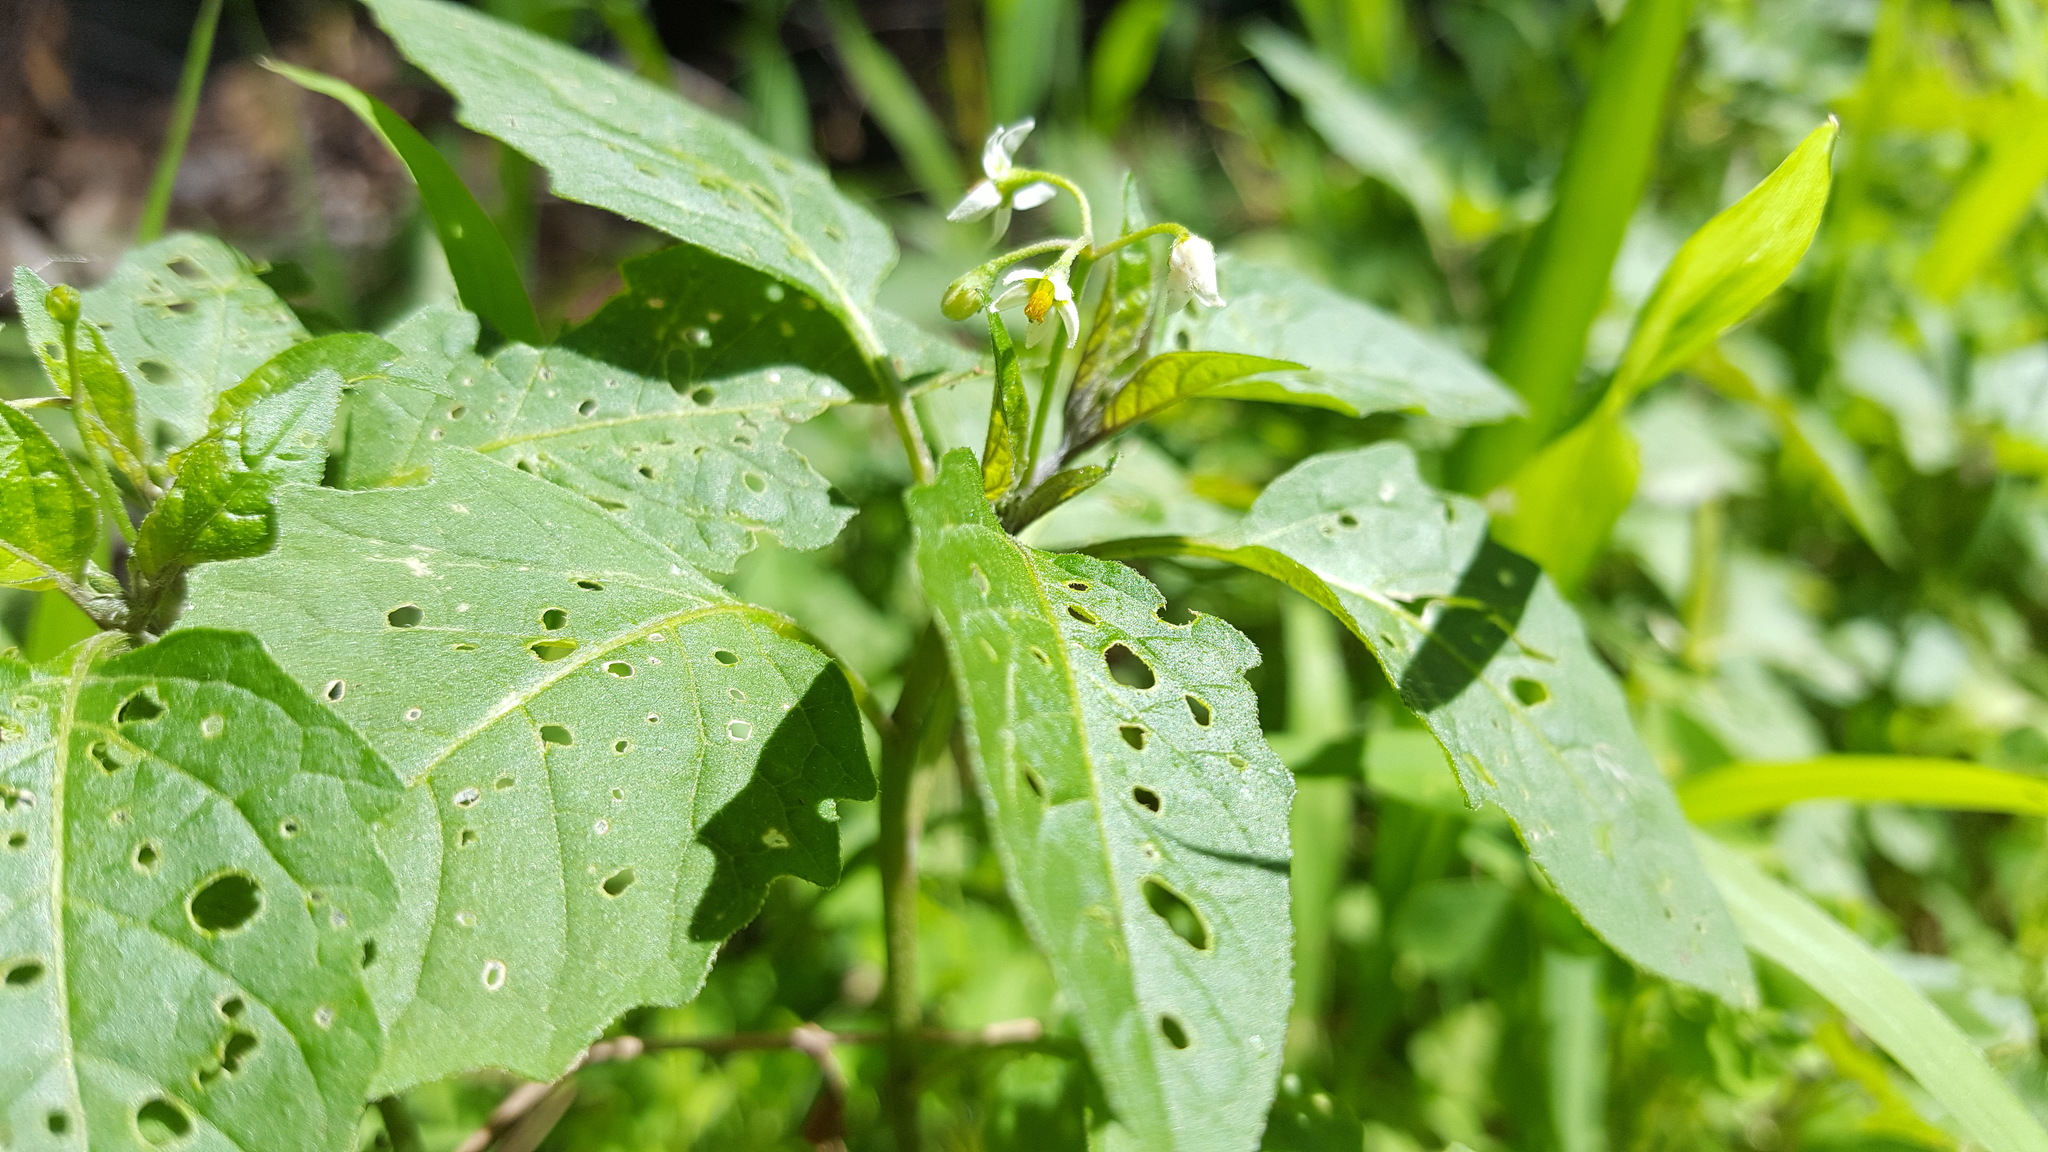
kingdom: Plantae
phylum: Tracheophyta
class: Magnoliopsida
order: Solanales
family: Solanaceae
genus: Solanum
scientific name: Solanum emulans
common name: Eastern black nightshade
